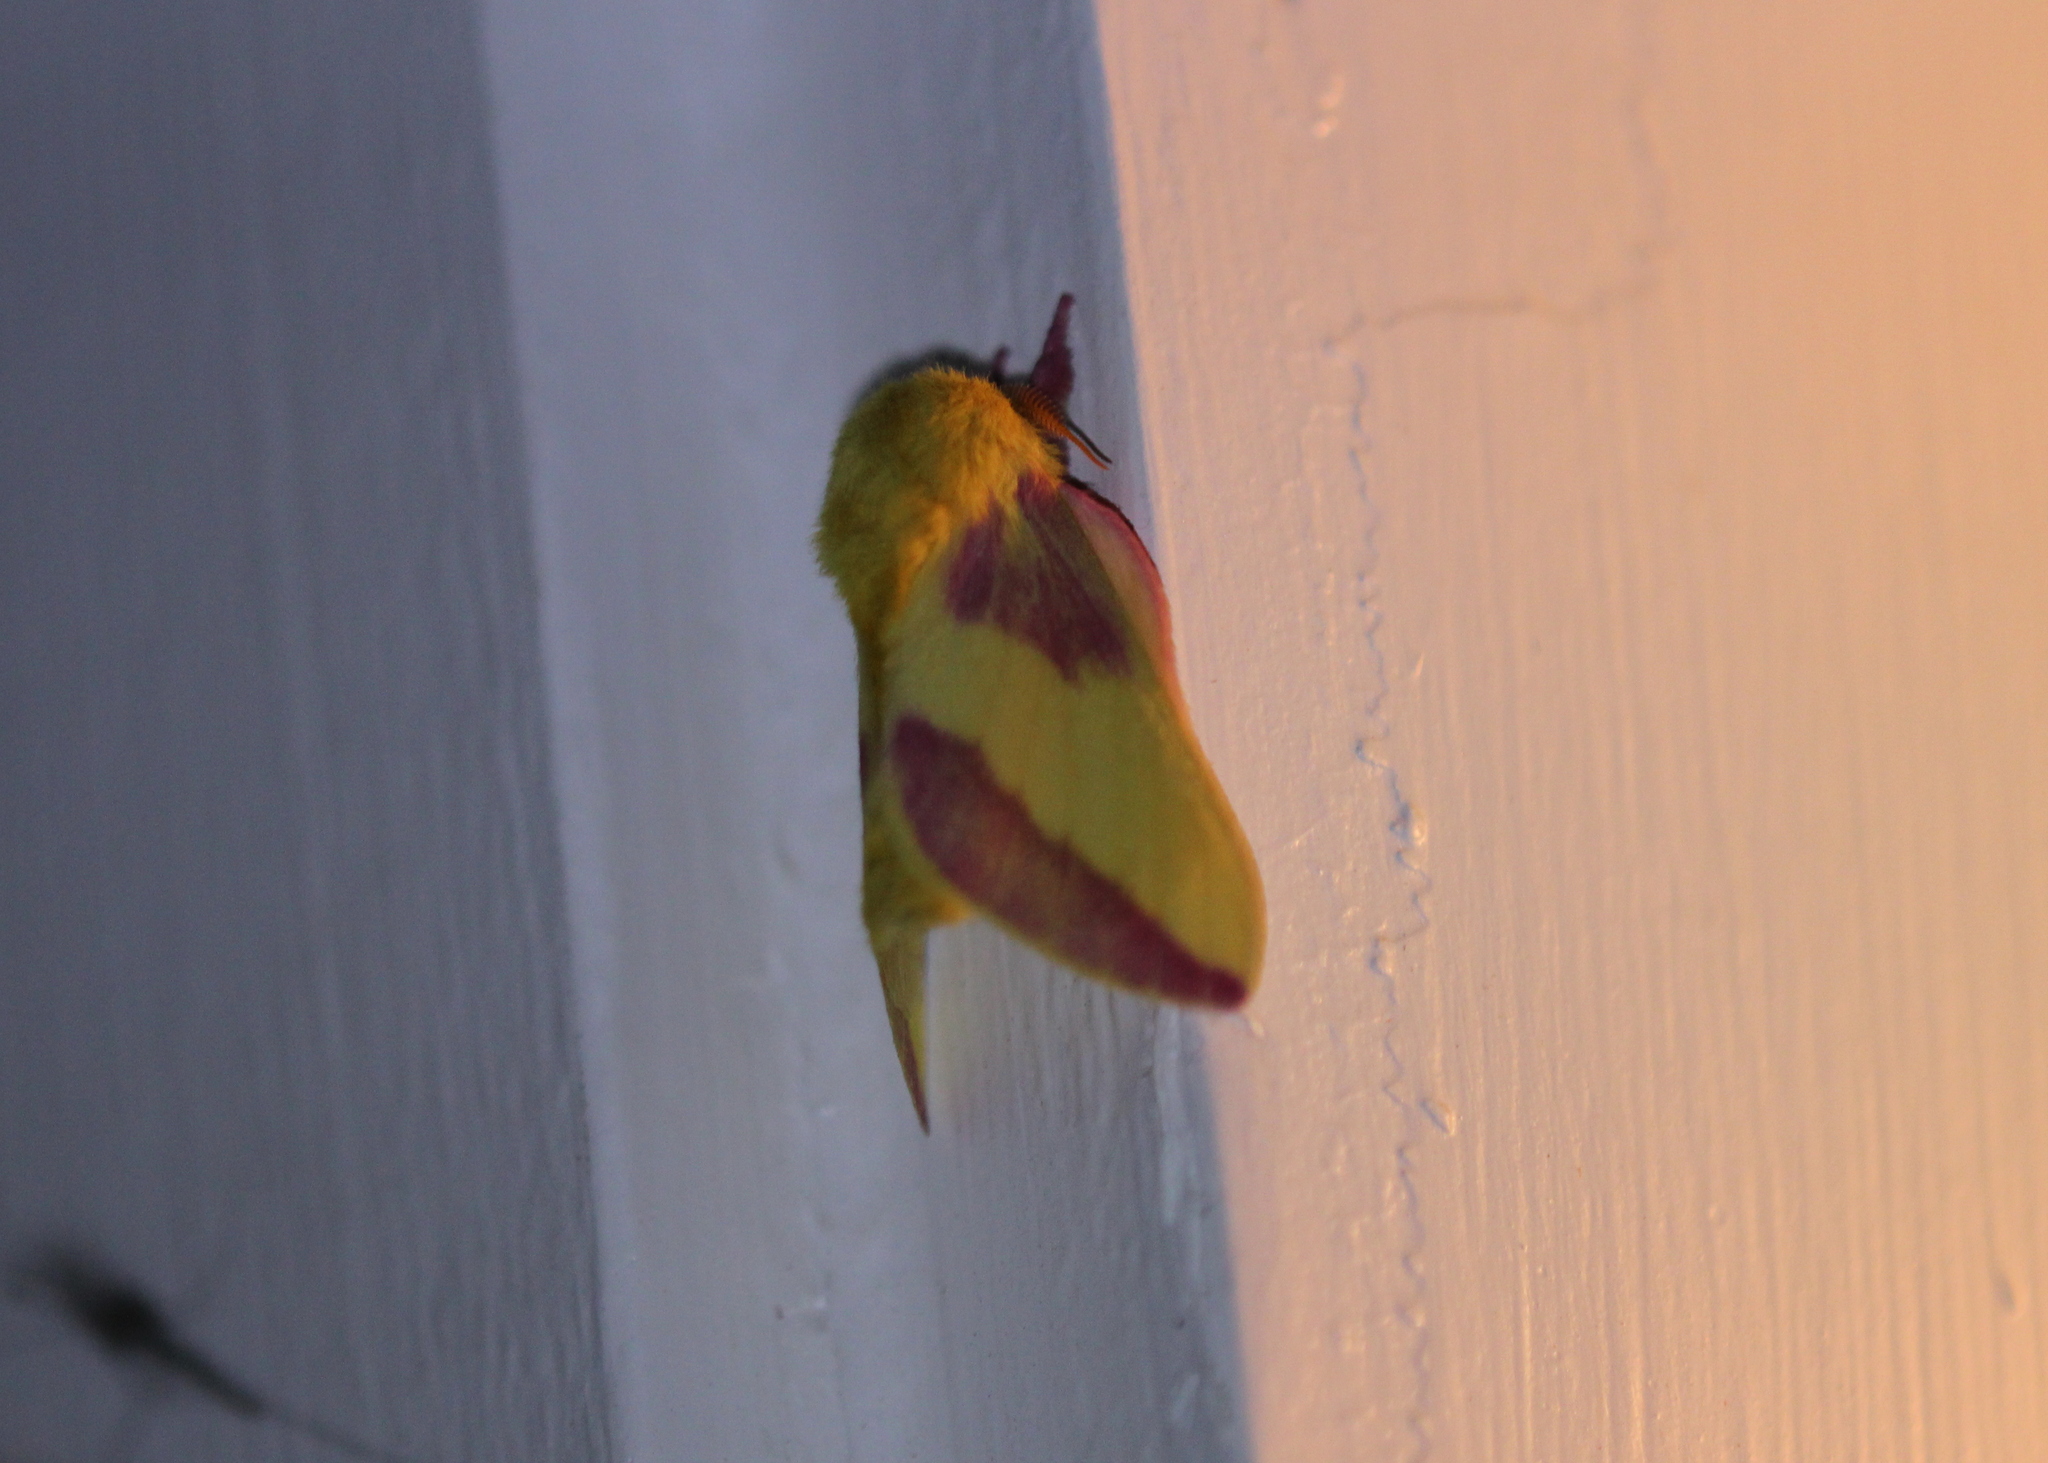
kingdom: Animalia
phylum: Arthropoda
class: Insecta
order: Lepidoptera
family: Saturniidae
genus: Dryocampa
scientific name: Dryocampa rubicunda
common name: Rosy maple moth
